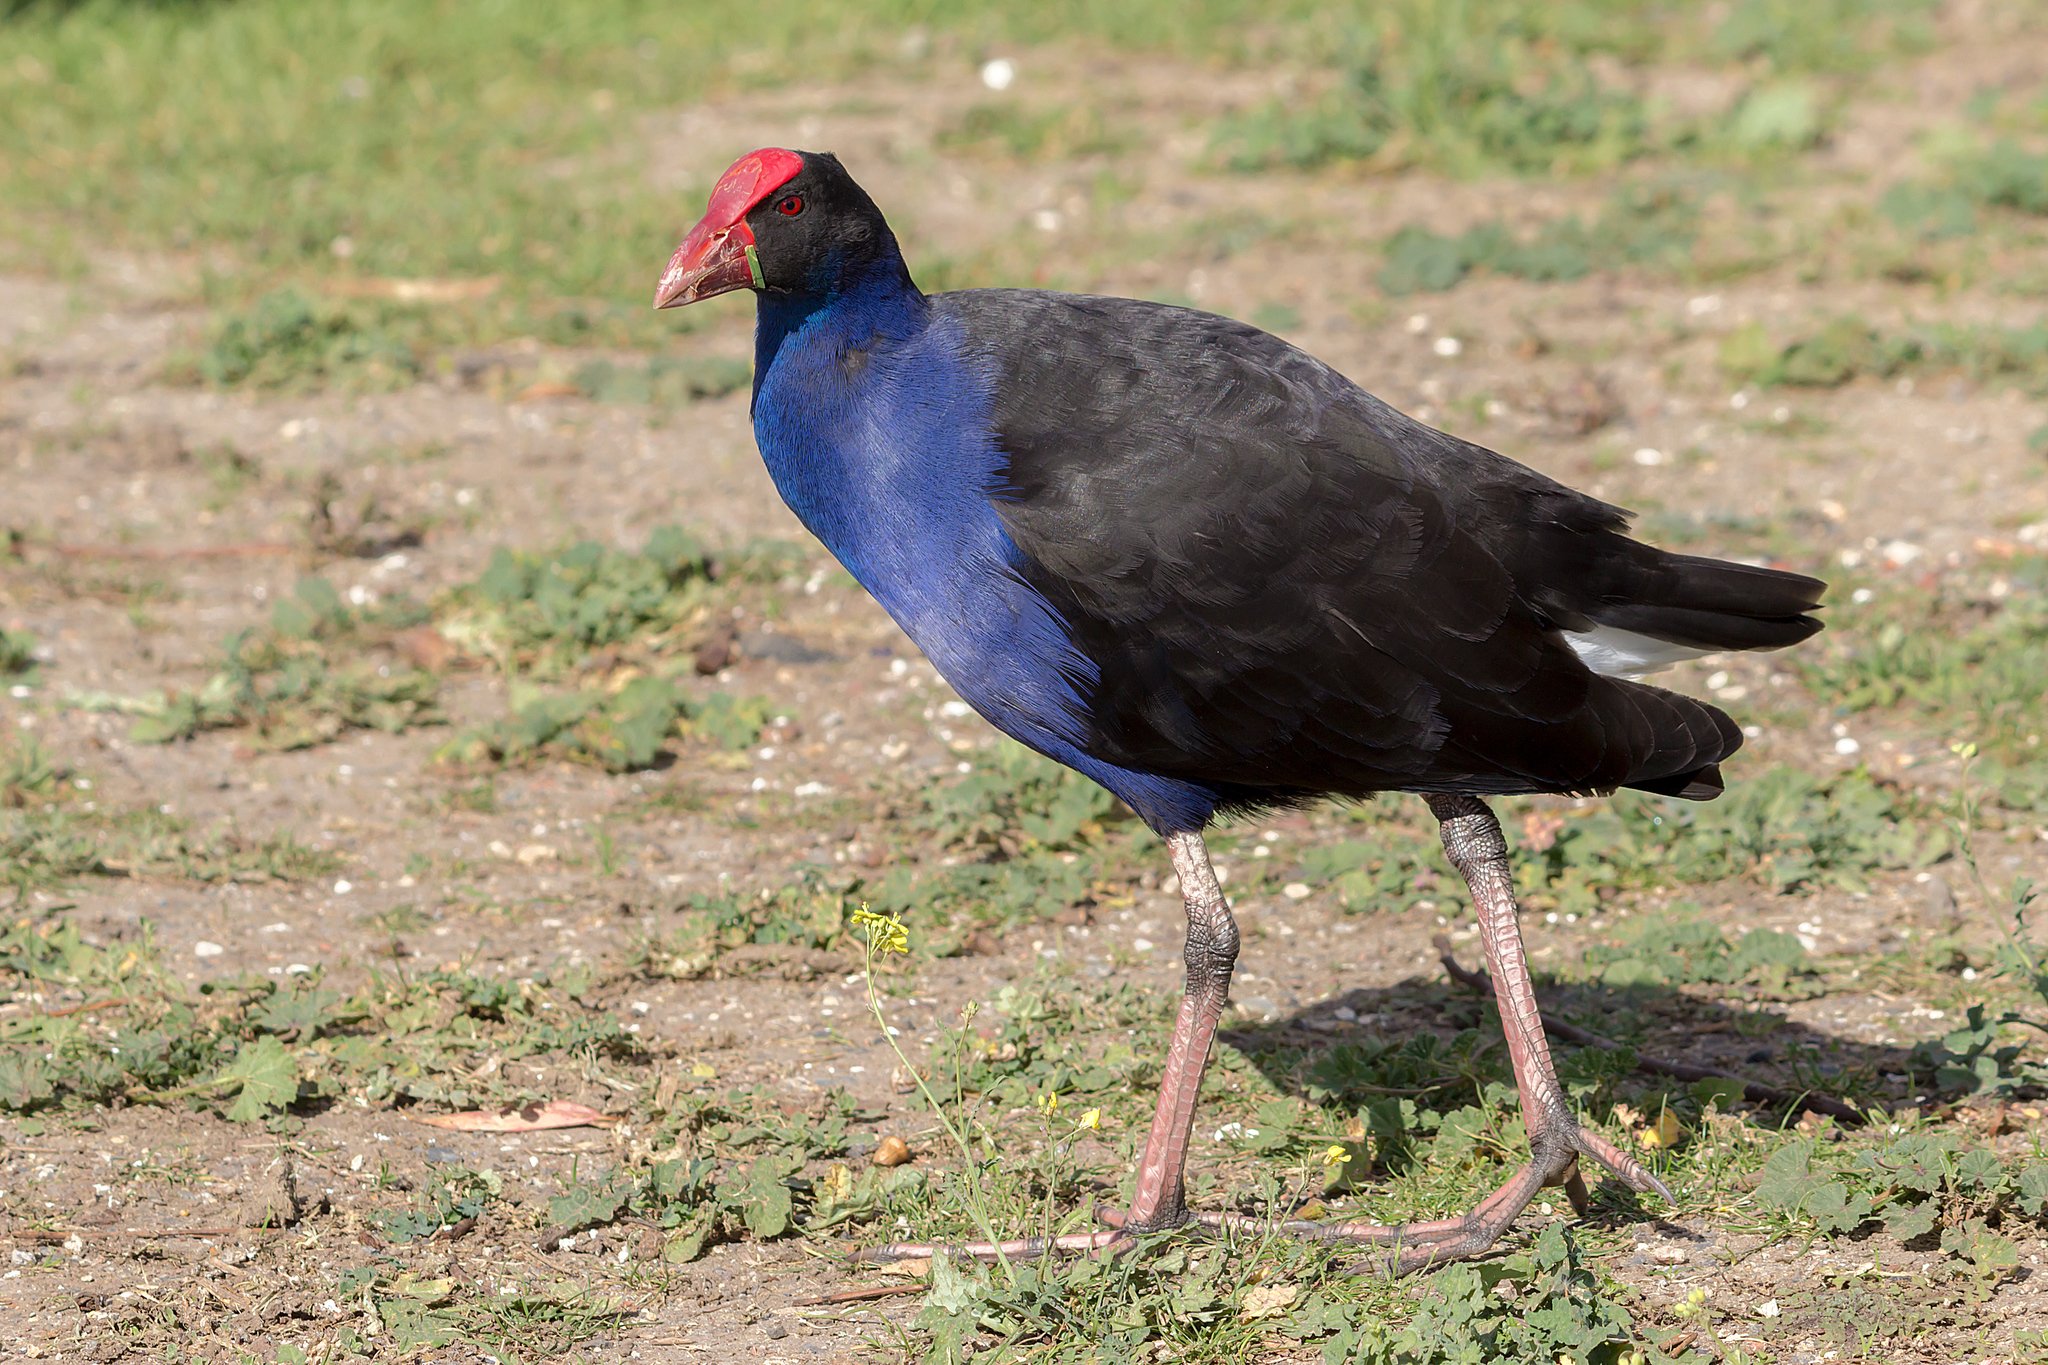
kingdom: Animalia
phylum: Chordata
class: Aves
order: Gruiformes
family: Rallidae
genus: Porphyrio
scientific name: Porphyrio melanotus
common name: Australasian swamphen
